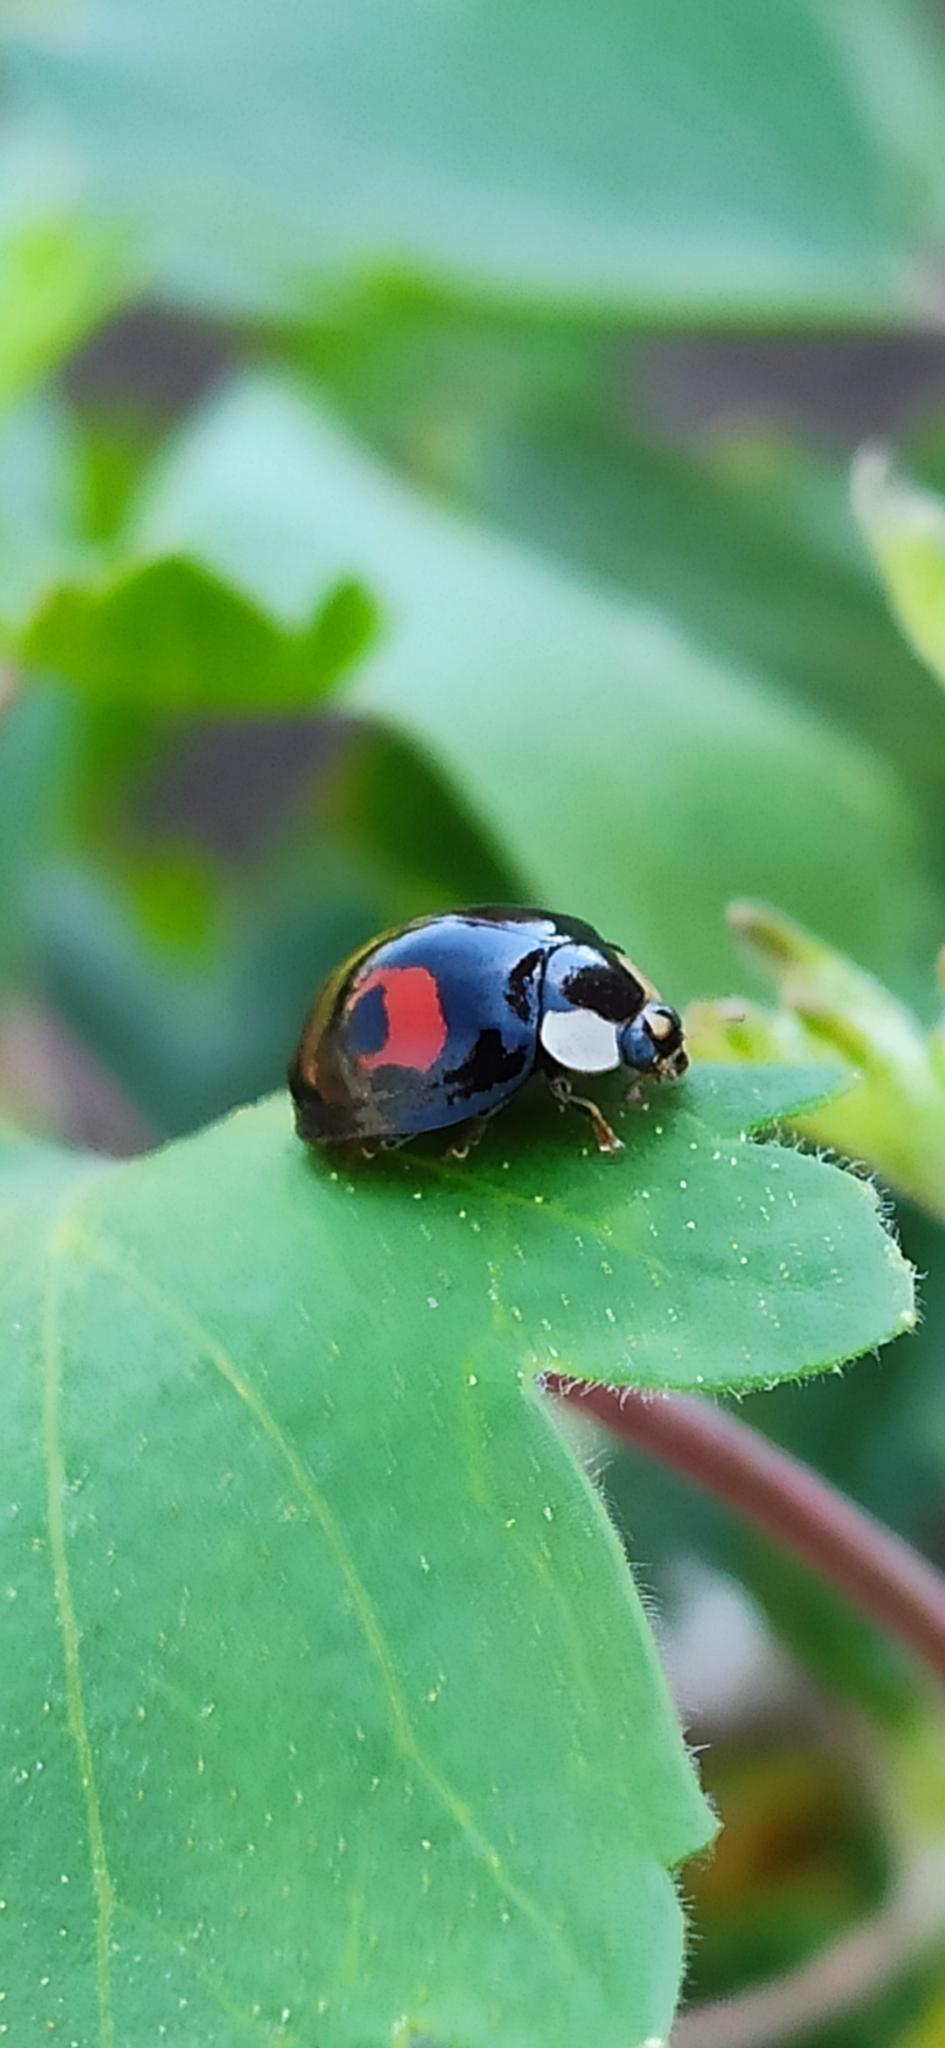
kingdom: Animalia
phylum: Arthropoda
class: Insecta
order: Coleoptera
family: Coccinellidae
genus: Harmonia
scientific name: Harmonia axyridis
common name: Harlequin ladybird
